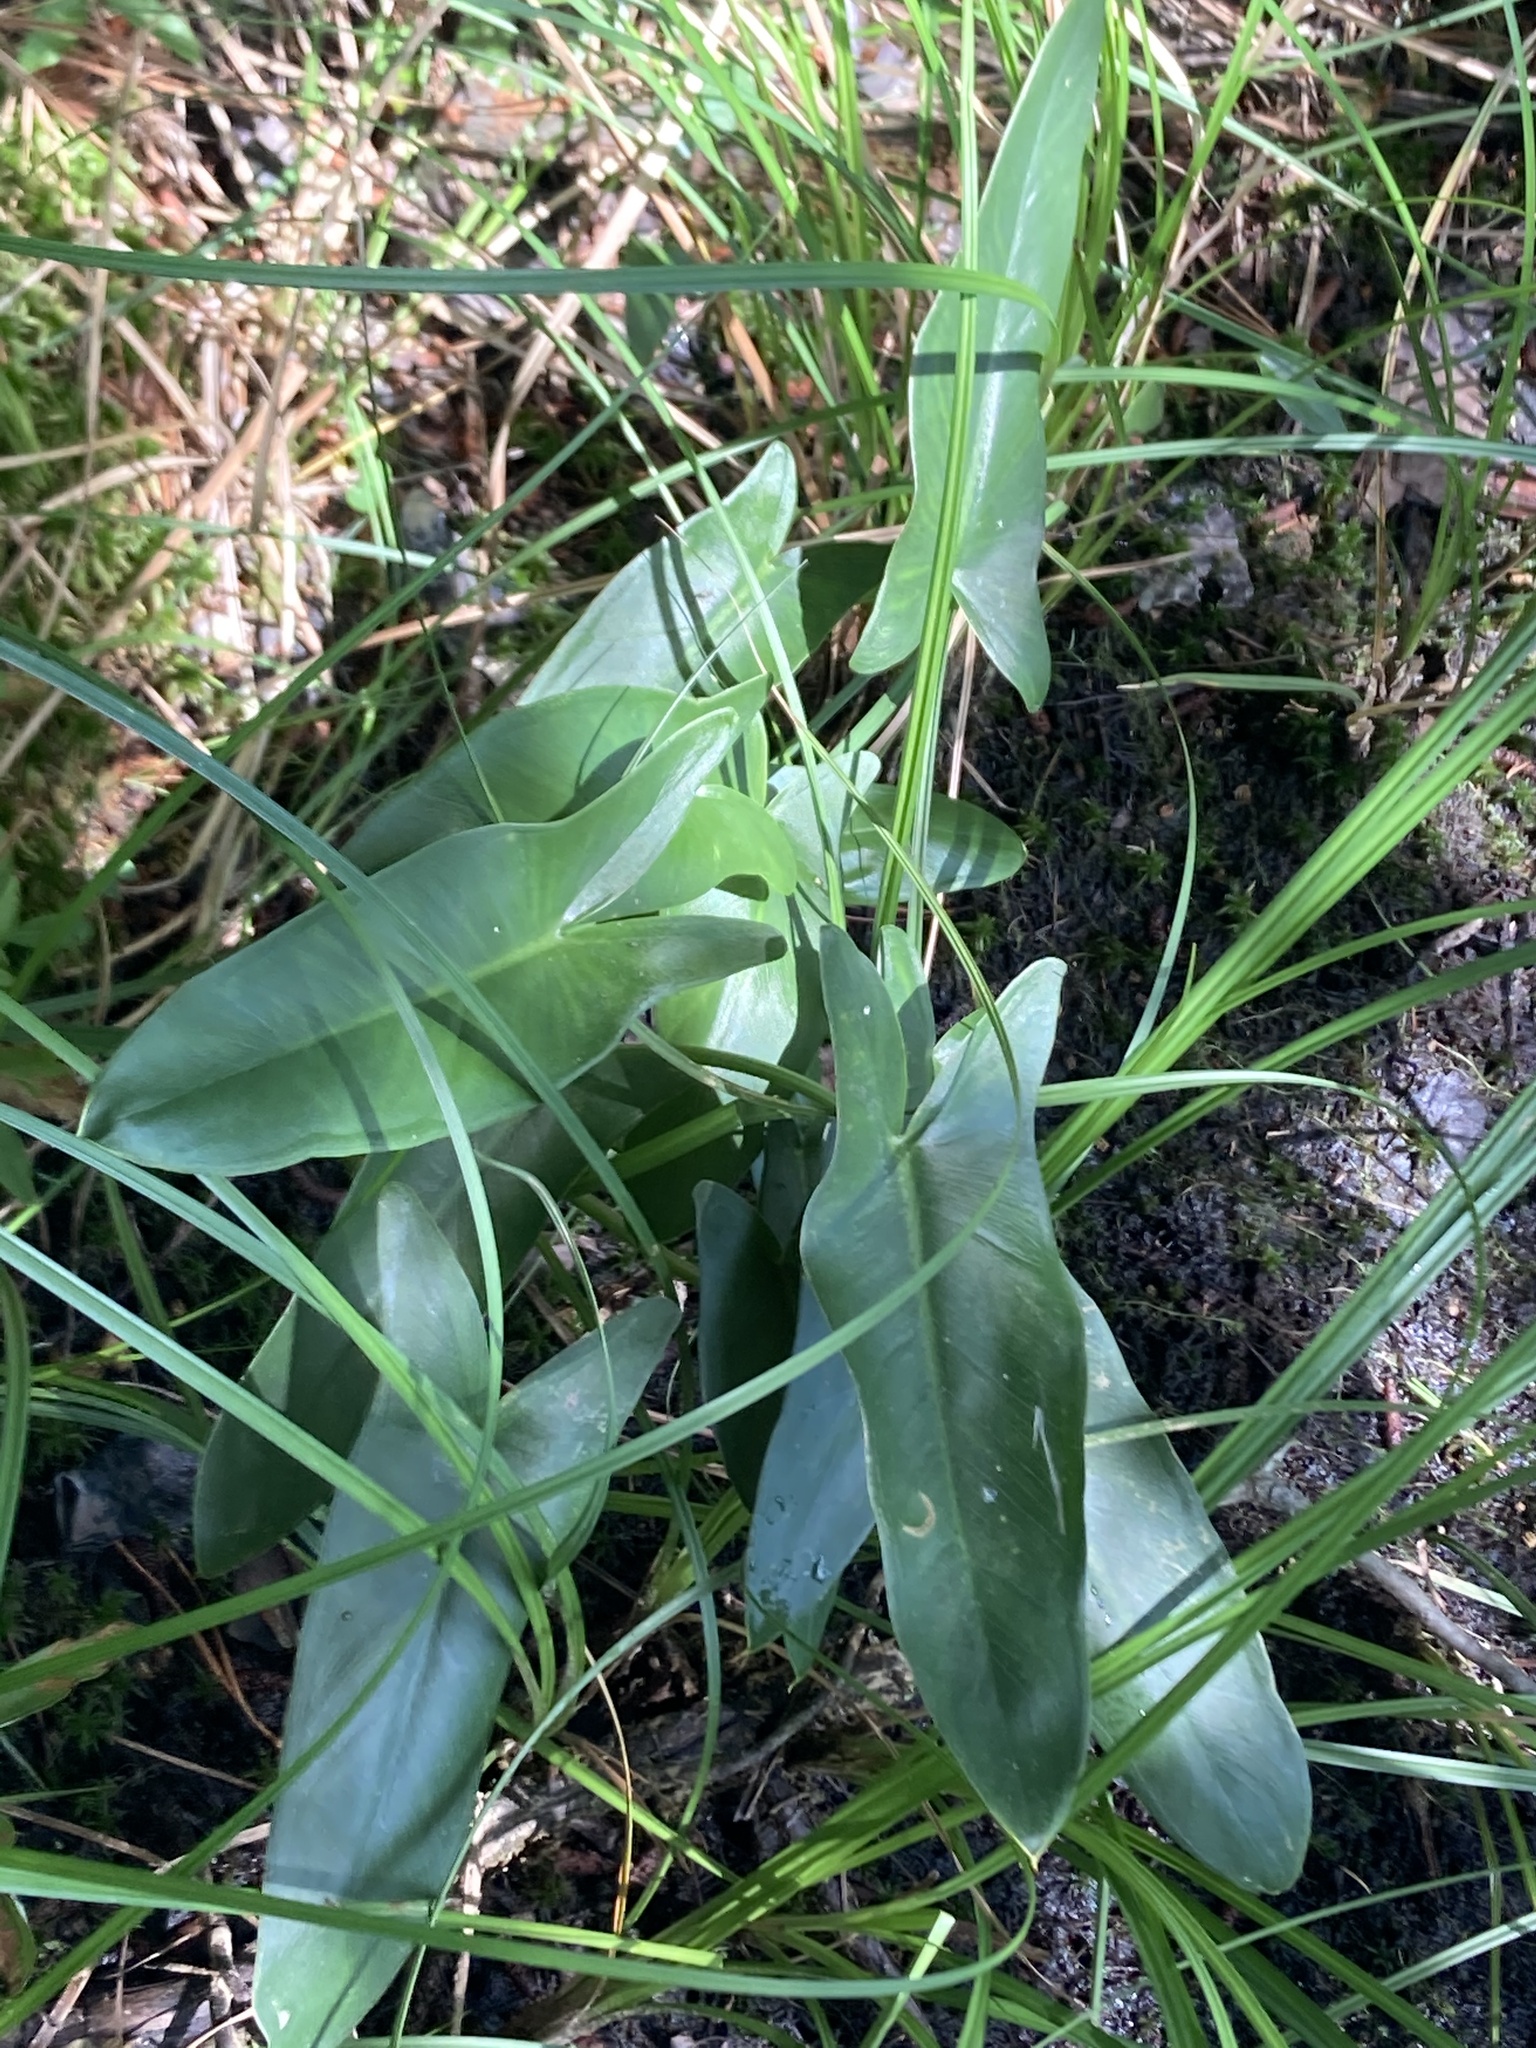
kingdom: Plantae
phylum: Tracheophyta
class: Liliopsida
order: Alismatales
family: Araceae
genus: Peltandra
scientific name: Peltandra virginica
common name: Arrow arum
